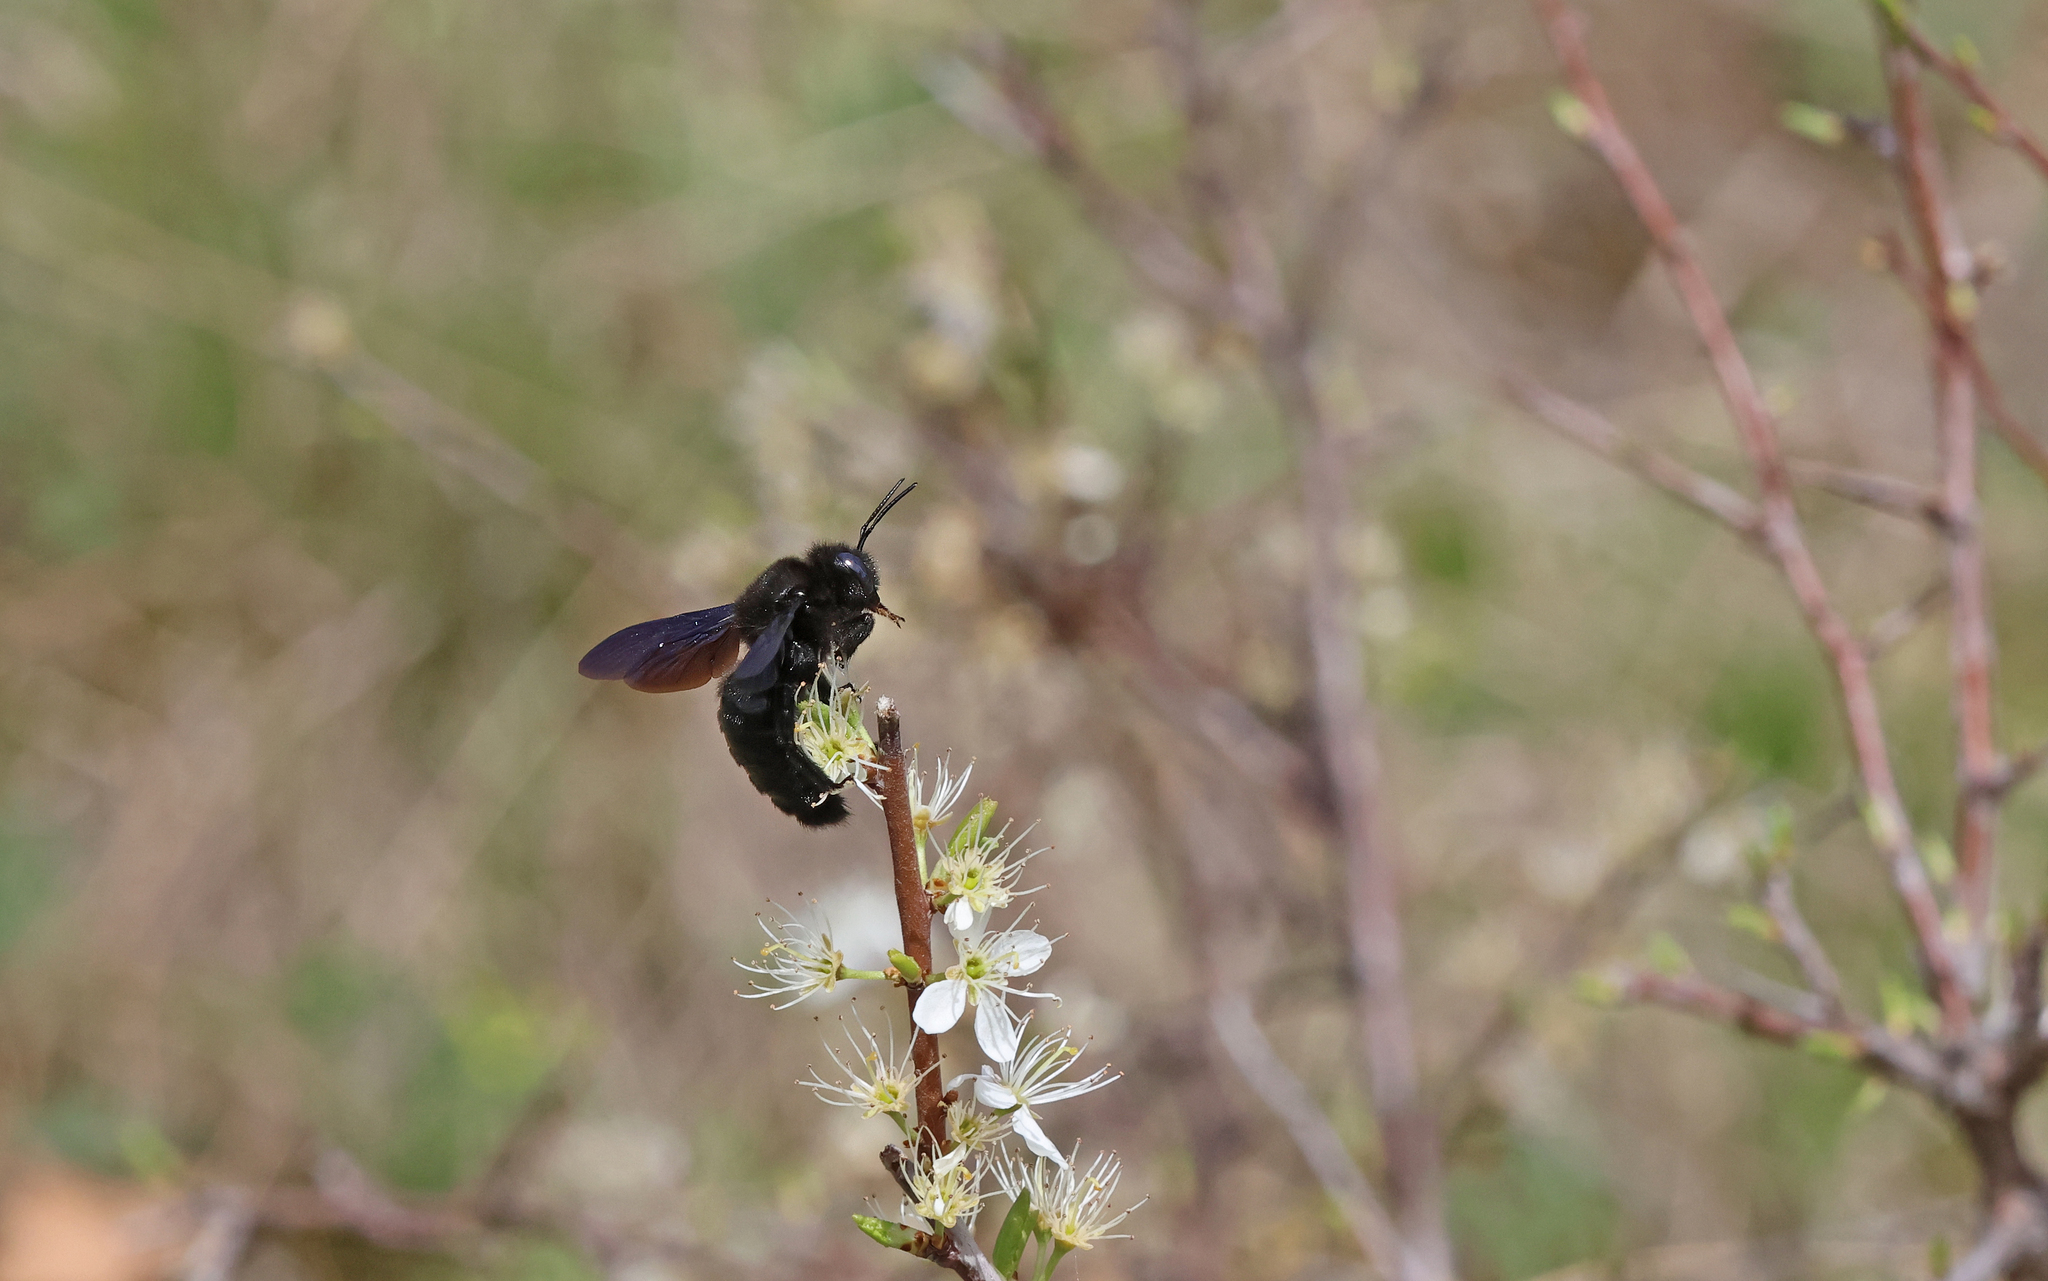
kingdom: Animalia
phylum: Arthropoda
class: Insecta
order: Hymenoptera
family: Apidae
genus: Xylocopa
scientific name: Xylocopa valga
